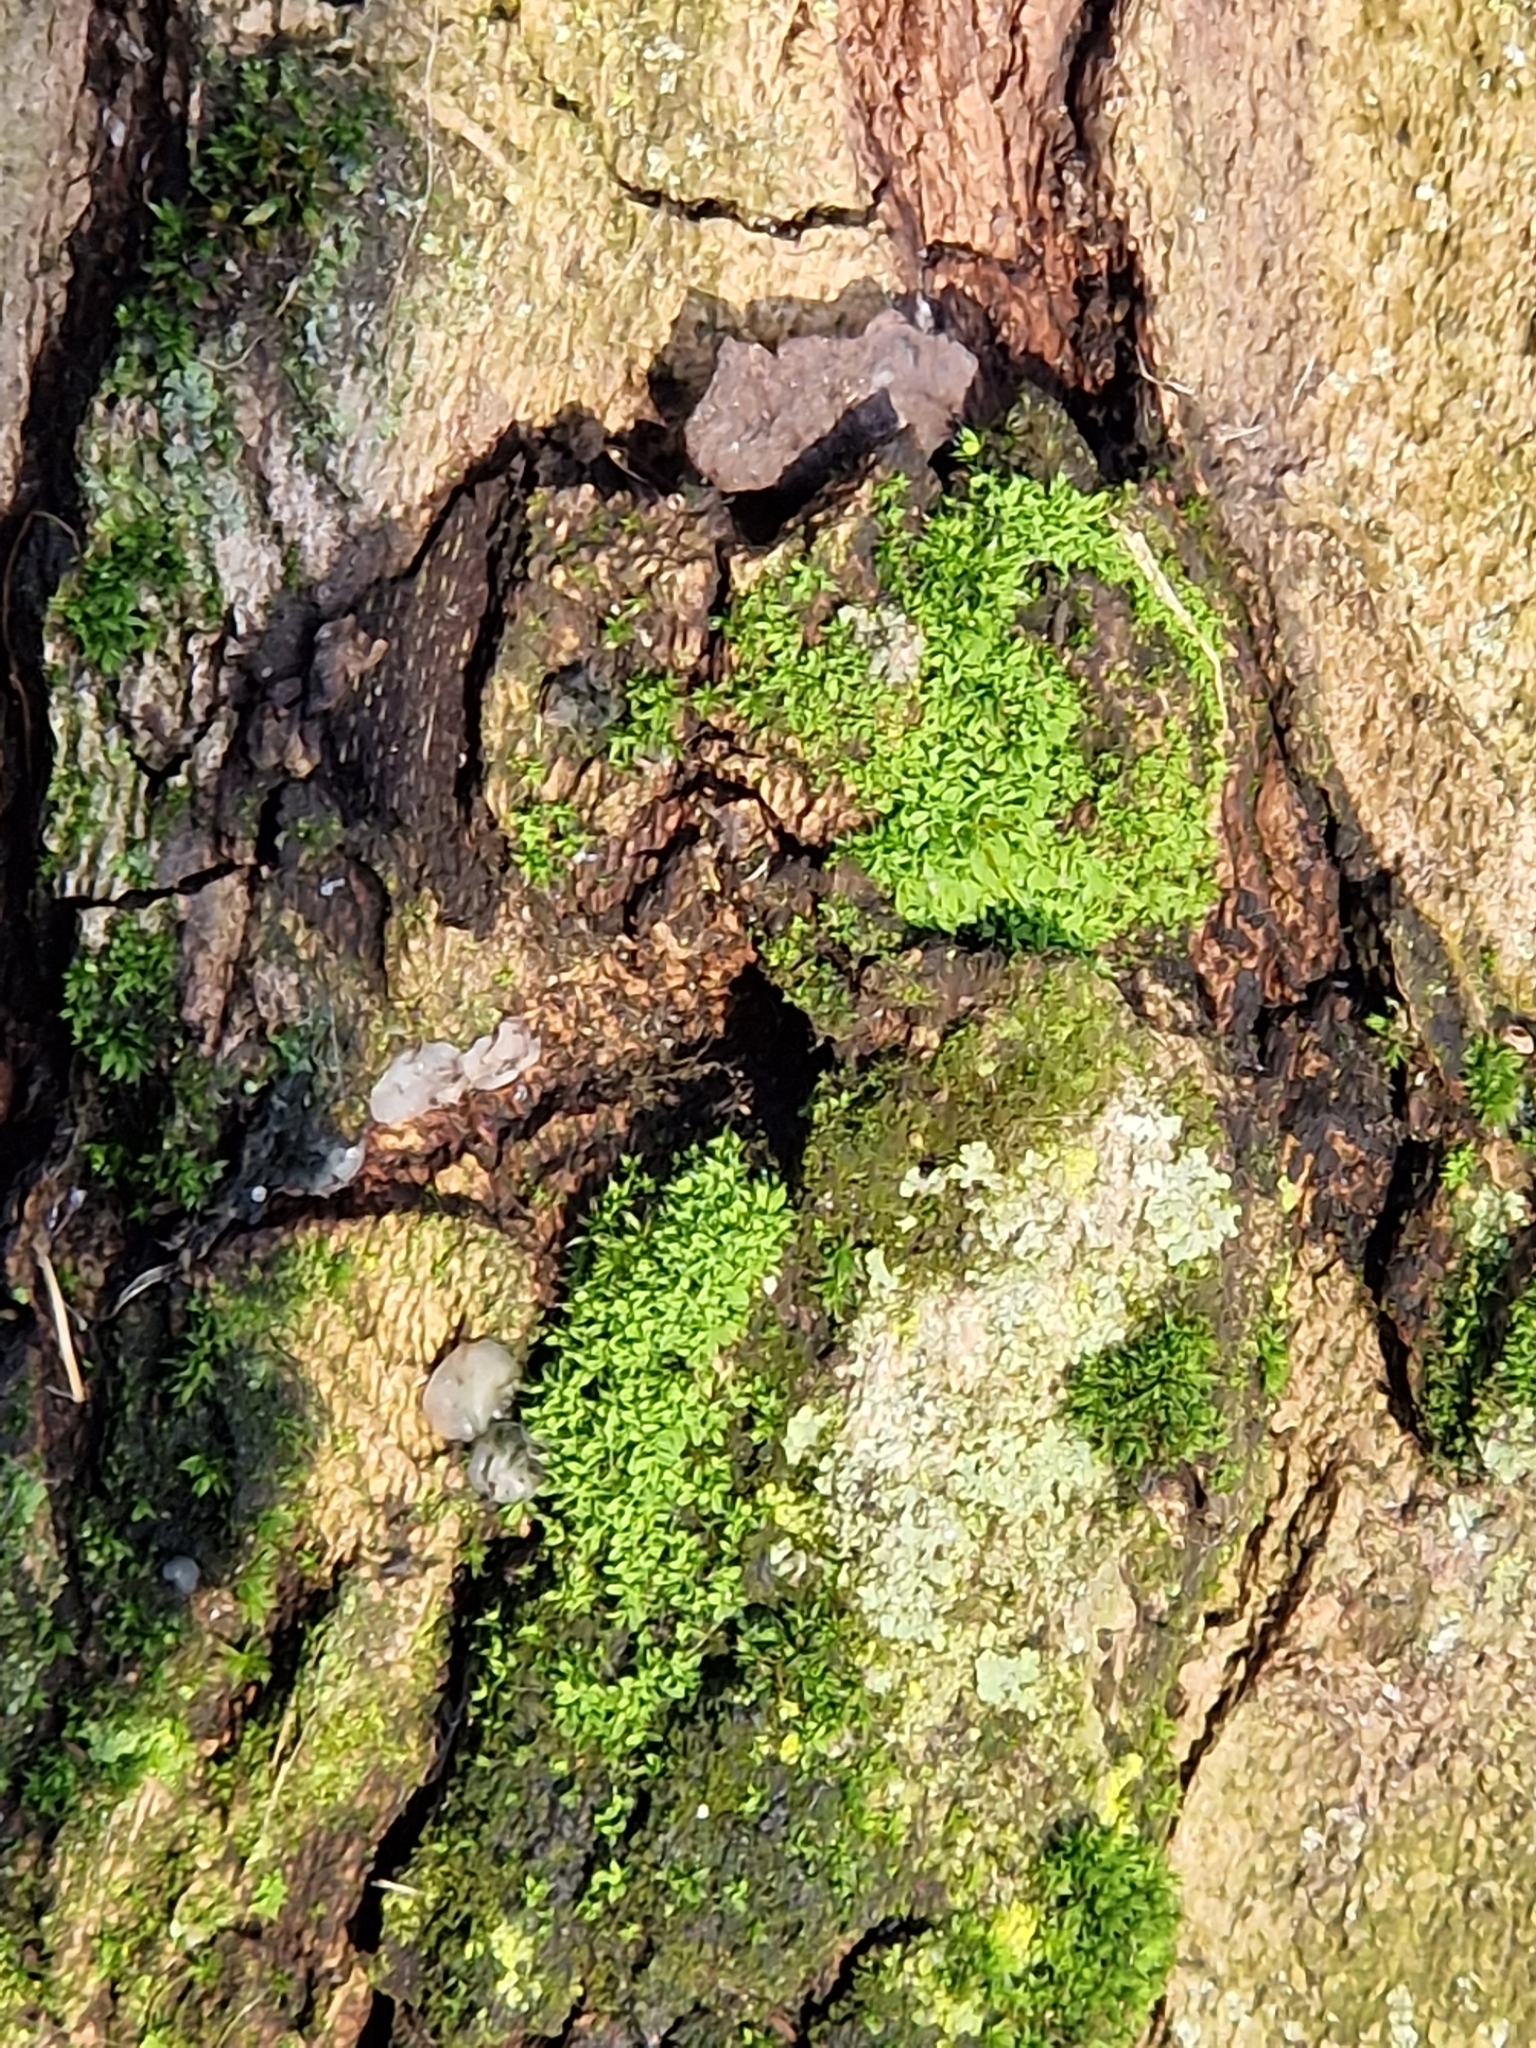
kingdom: Plantae
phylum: Bryophyta
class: Bryopsida
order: Pottiales
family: Pottiaceae
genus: Tortula
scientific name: Tortula muralis
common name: Wall screw-moss
